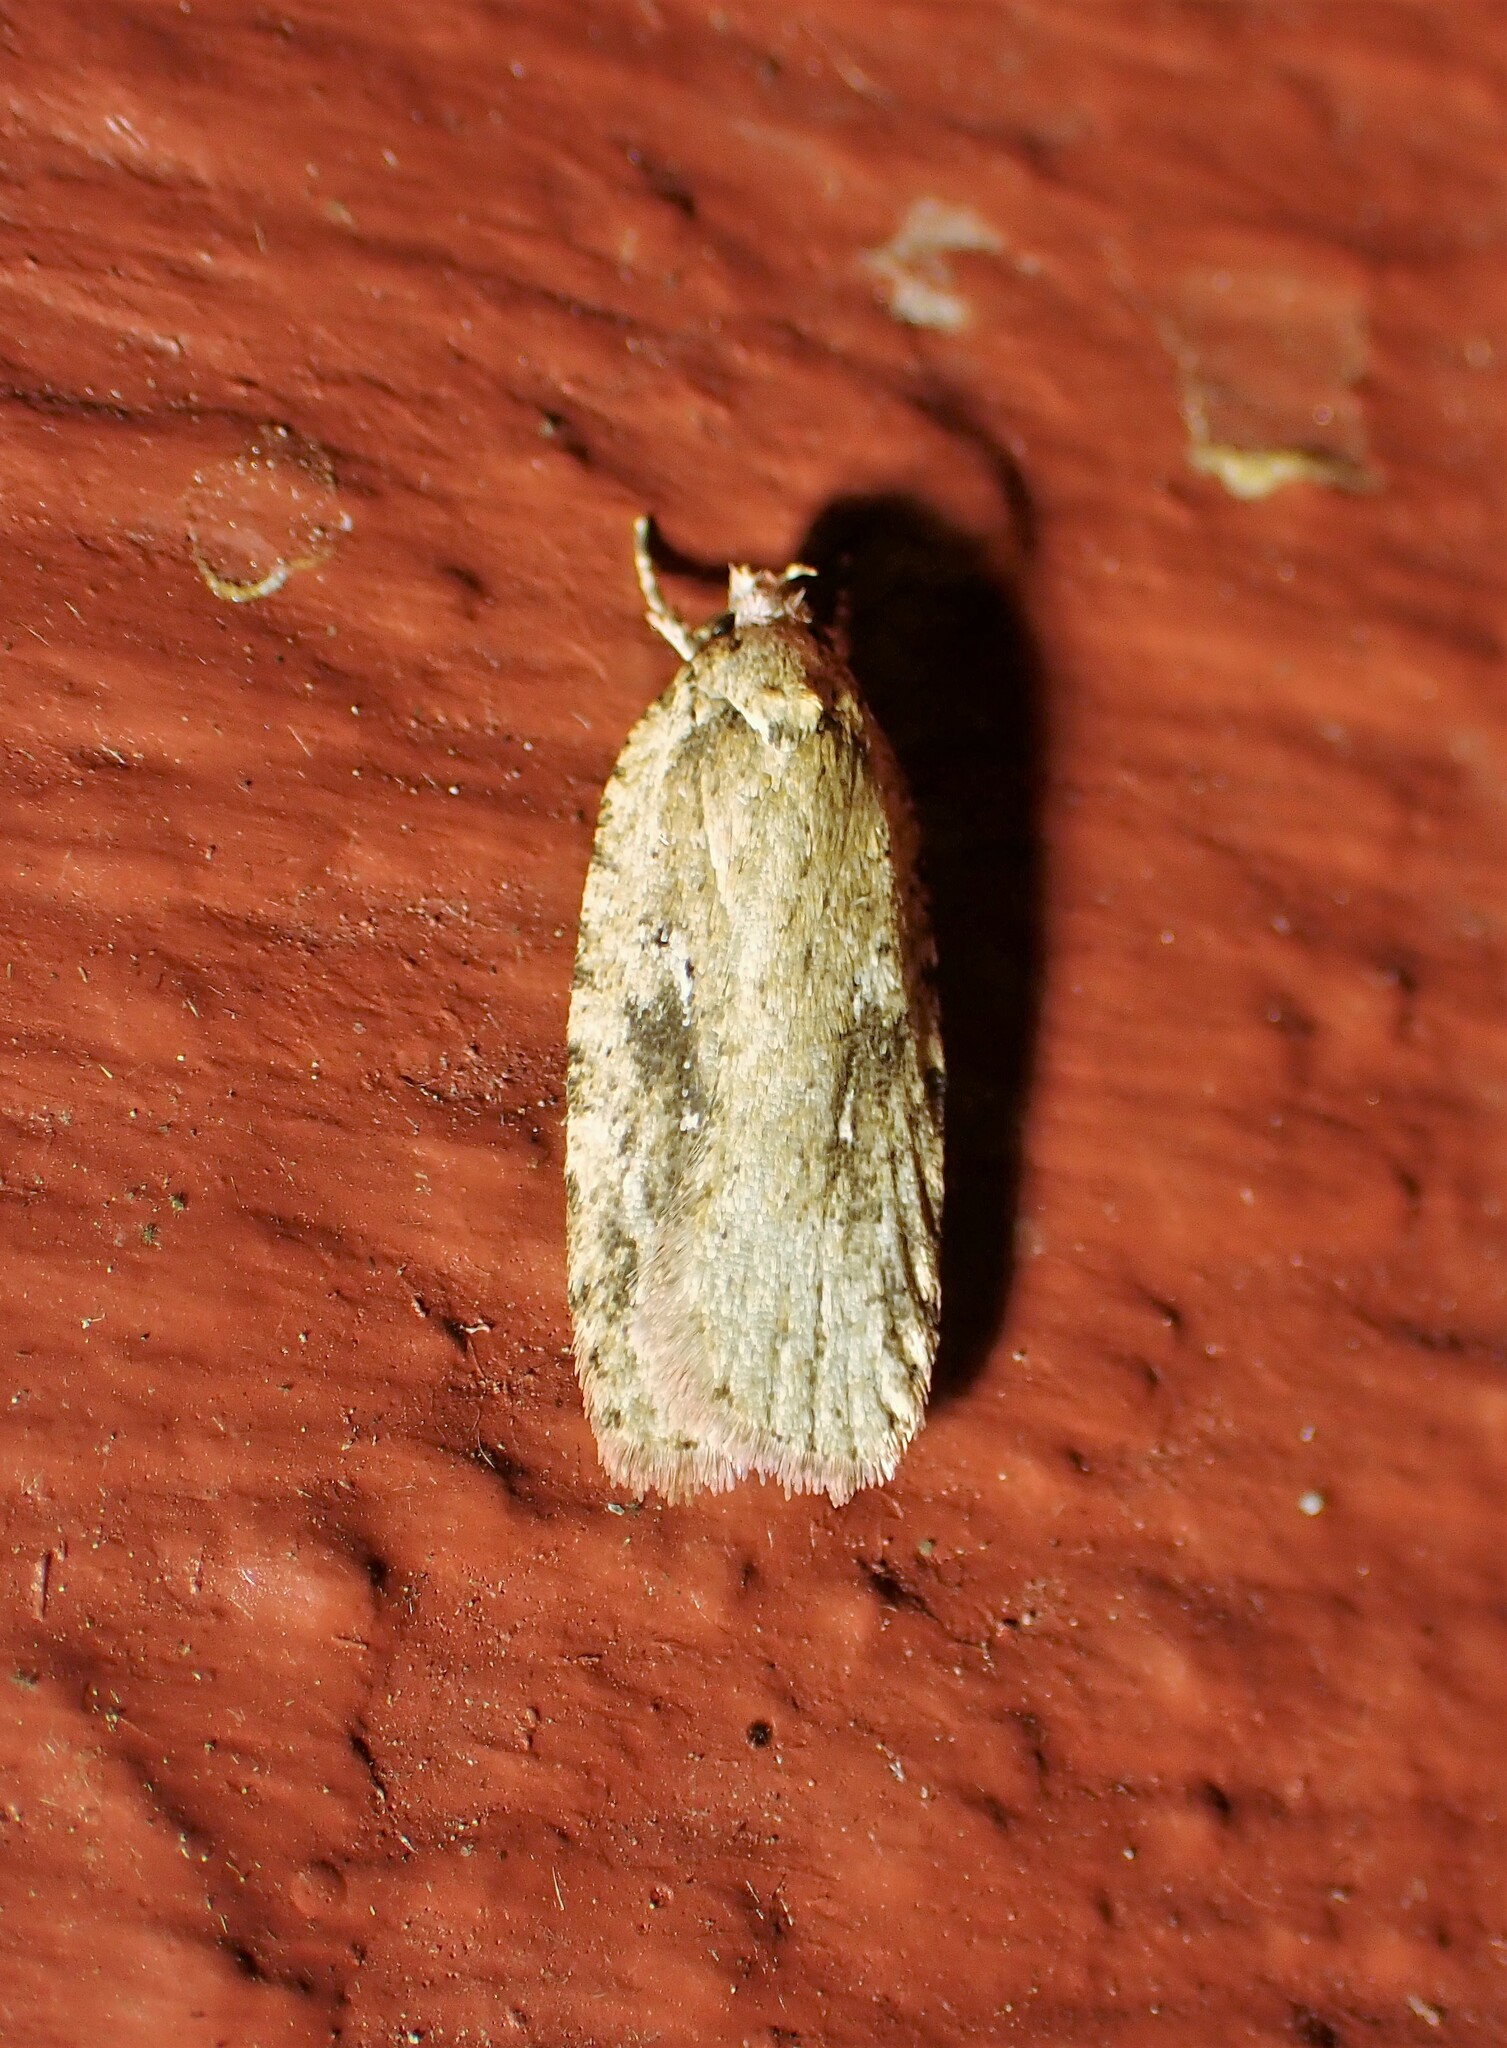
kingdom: Animalia
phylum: Arthropoda
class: Insecta
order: Lepidoptera
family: Depressariidae
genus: Agonopterix
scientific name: Agonopterix pulvipennella
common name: Goldenrod leafffolder
